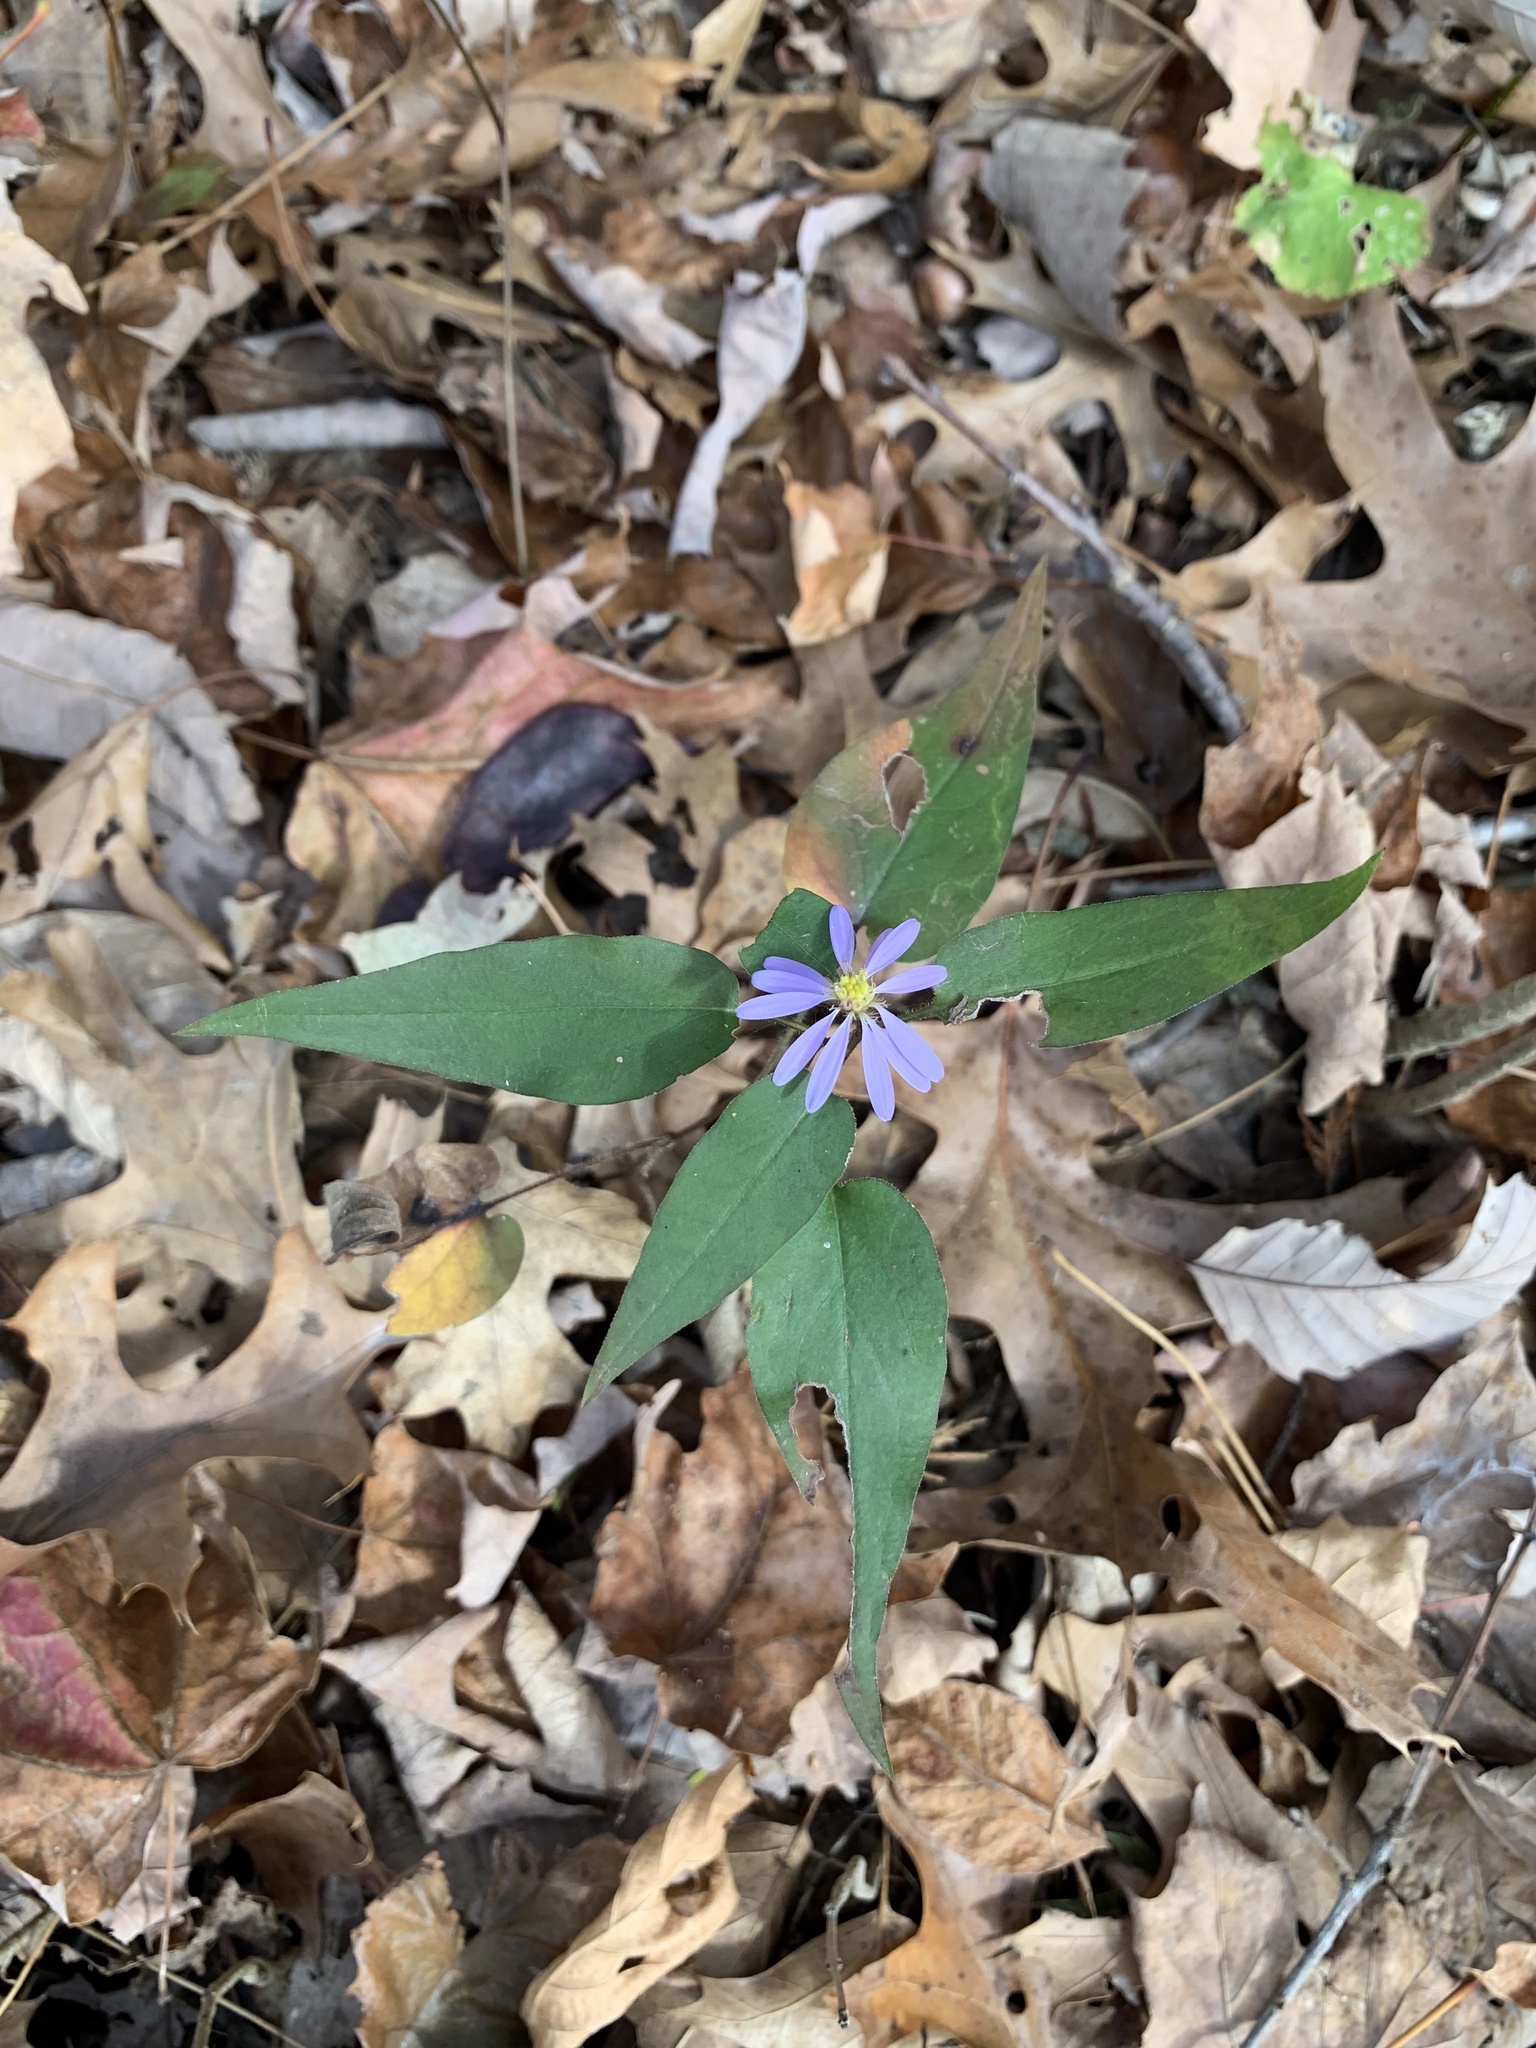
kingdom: Plantae
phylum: Tracheophyta
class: Magnoliopsida
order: Asterales
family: Asteraceae
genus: Symphyotrichum
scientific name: Symphyotrichum shortii
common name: Short's aster
